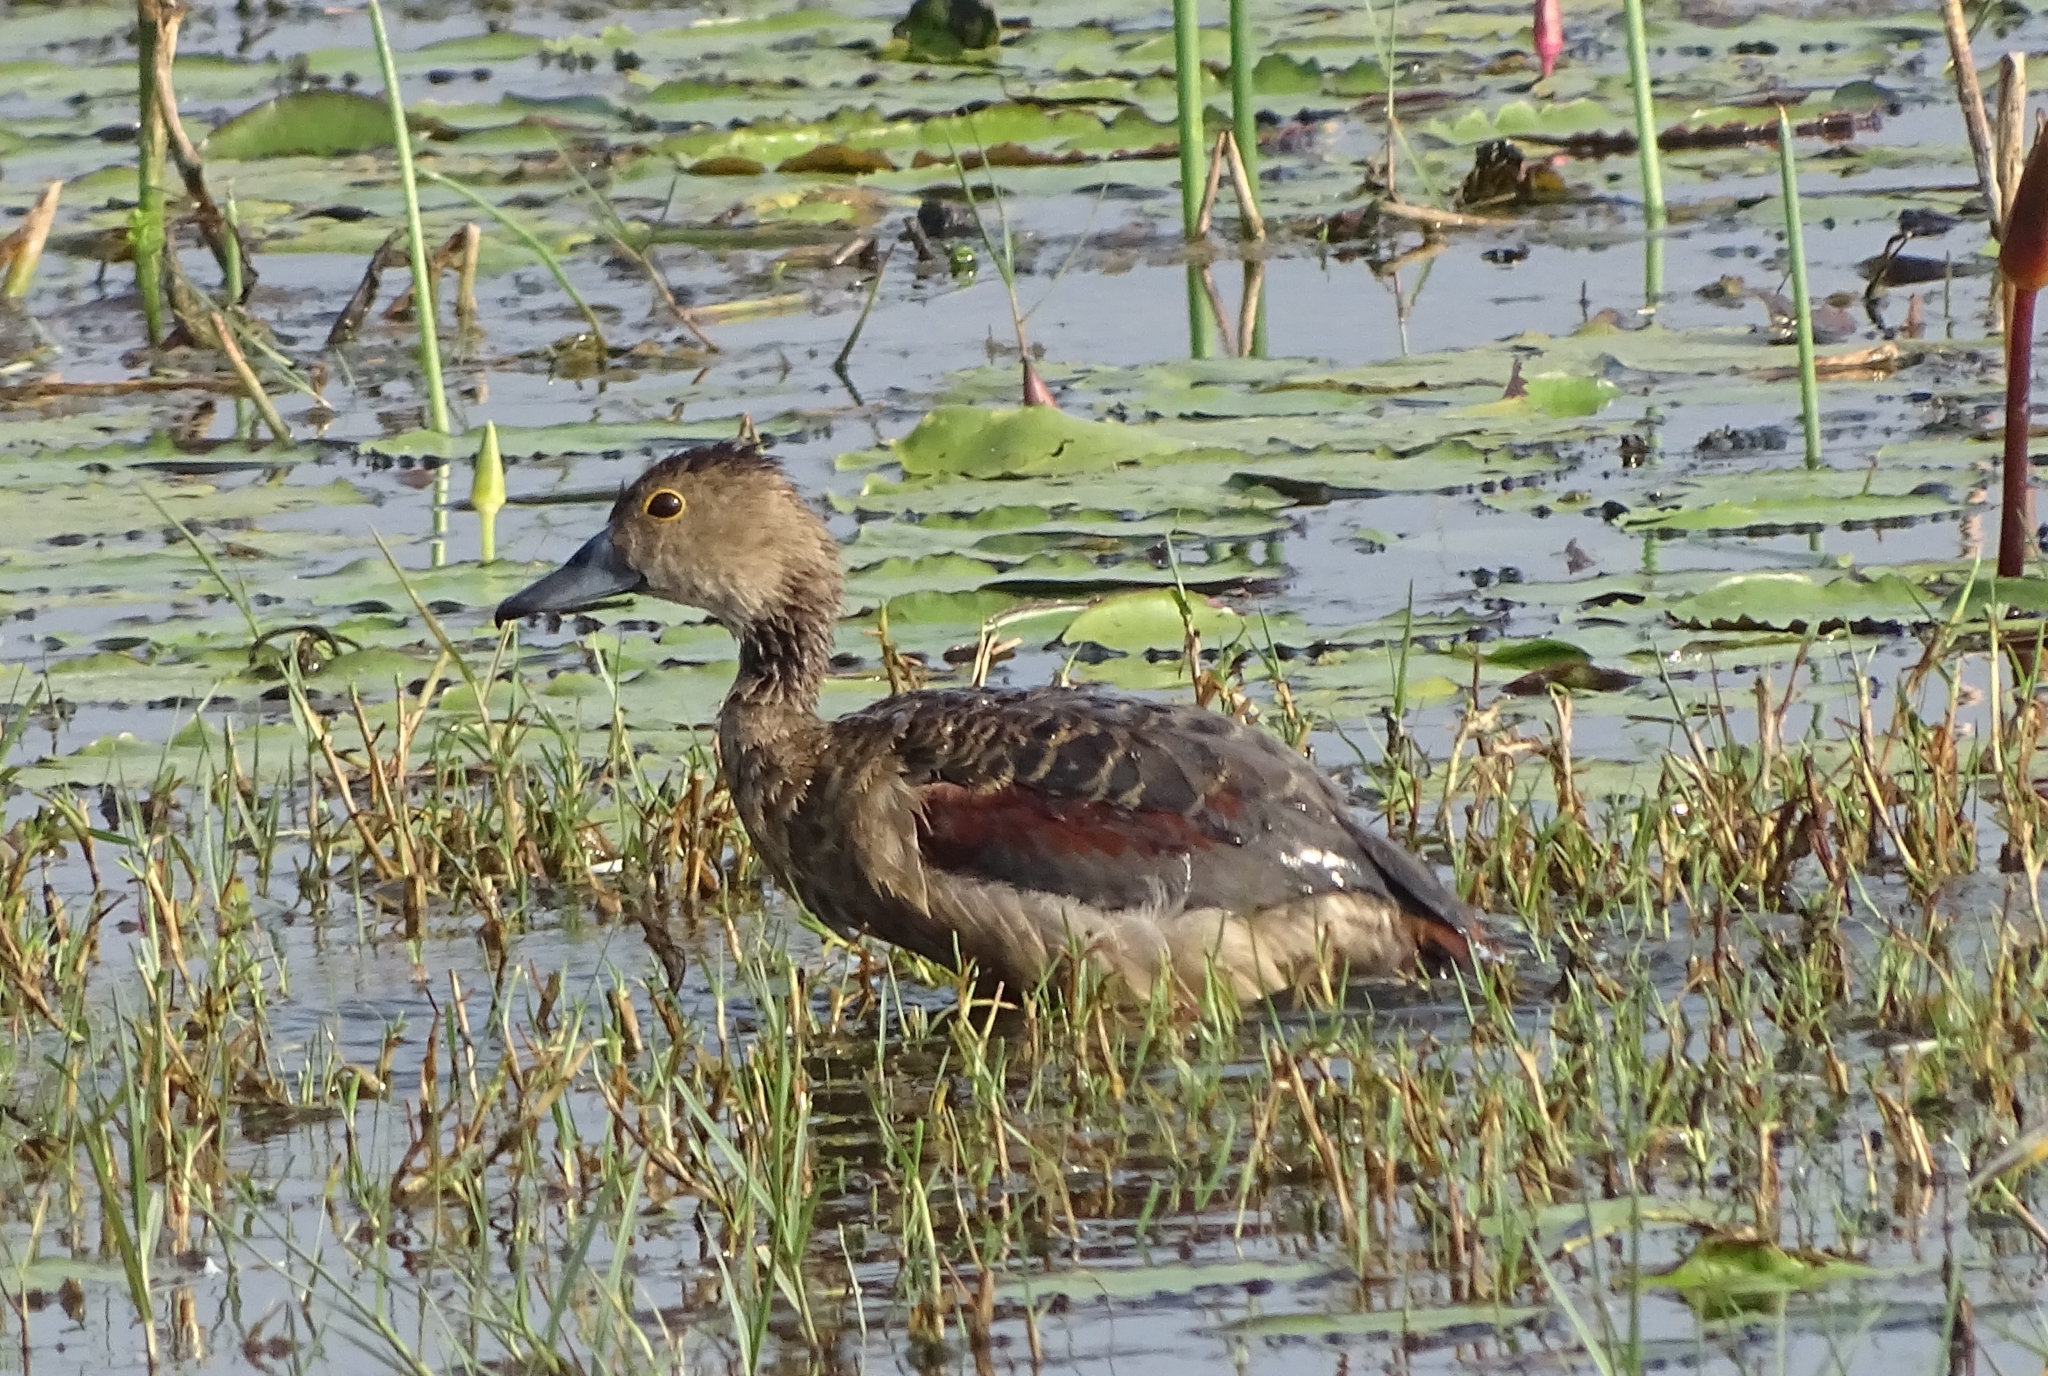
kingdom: Animalia
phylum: Chordata
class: Aves
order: Anseriformes
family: Anatidae
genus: Dendrocygna
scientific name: Dendrocygna javanica
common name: Lesser whistling-duck
